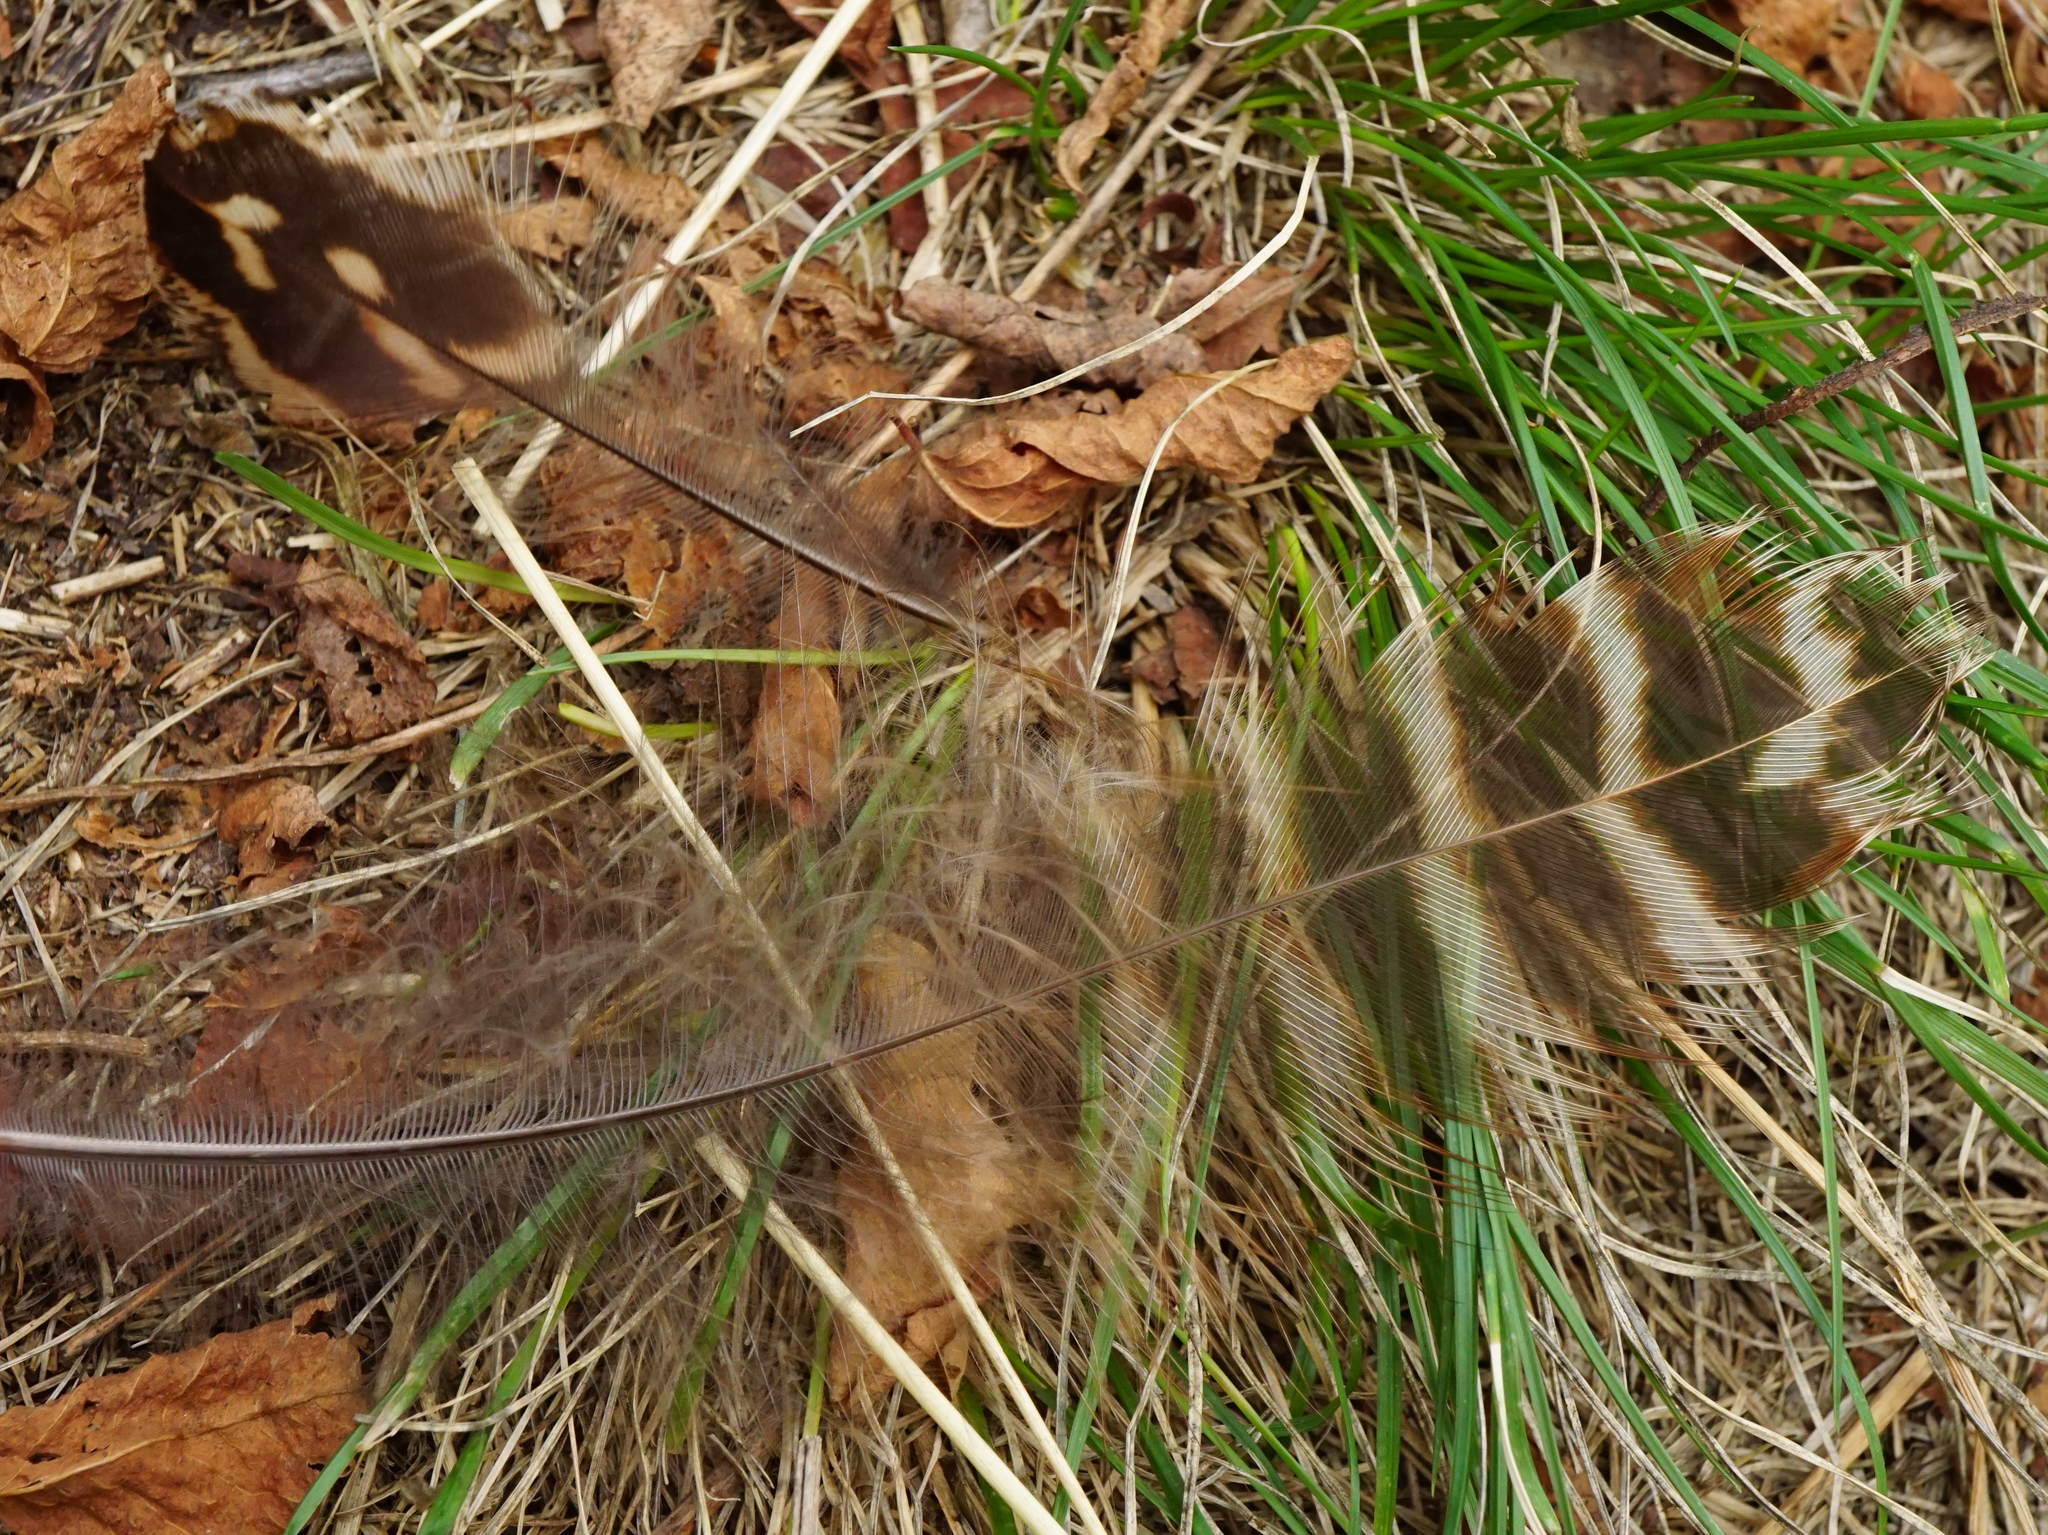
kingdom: Animalia
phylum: Chordata
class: Aves
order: Galliformes
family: Phasianidae
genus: Phasianus
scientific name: Phasianus colchicus
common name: Common pheasant
